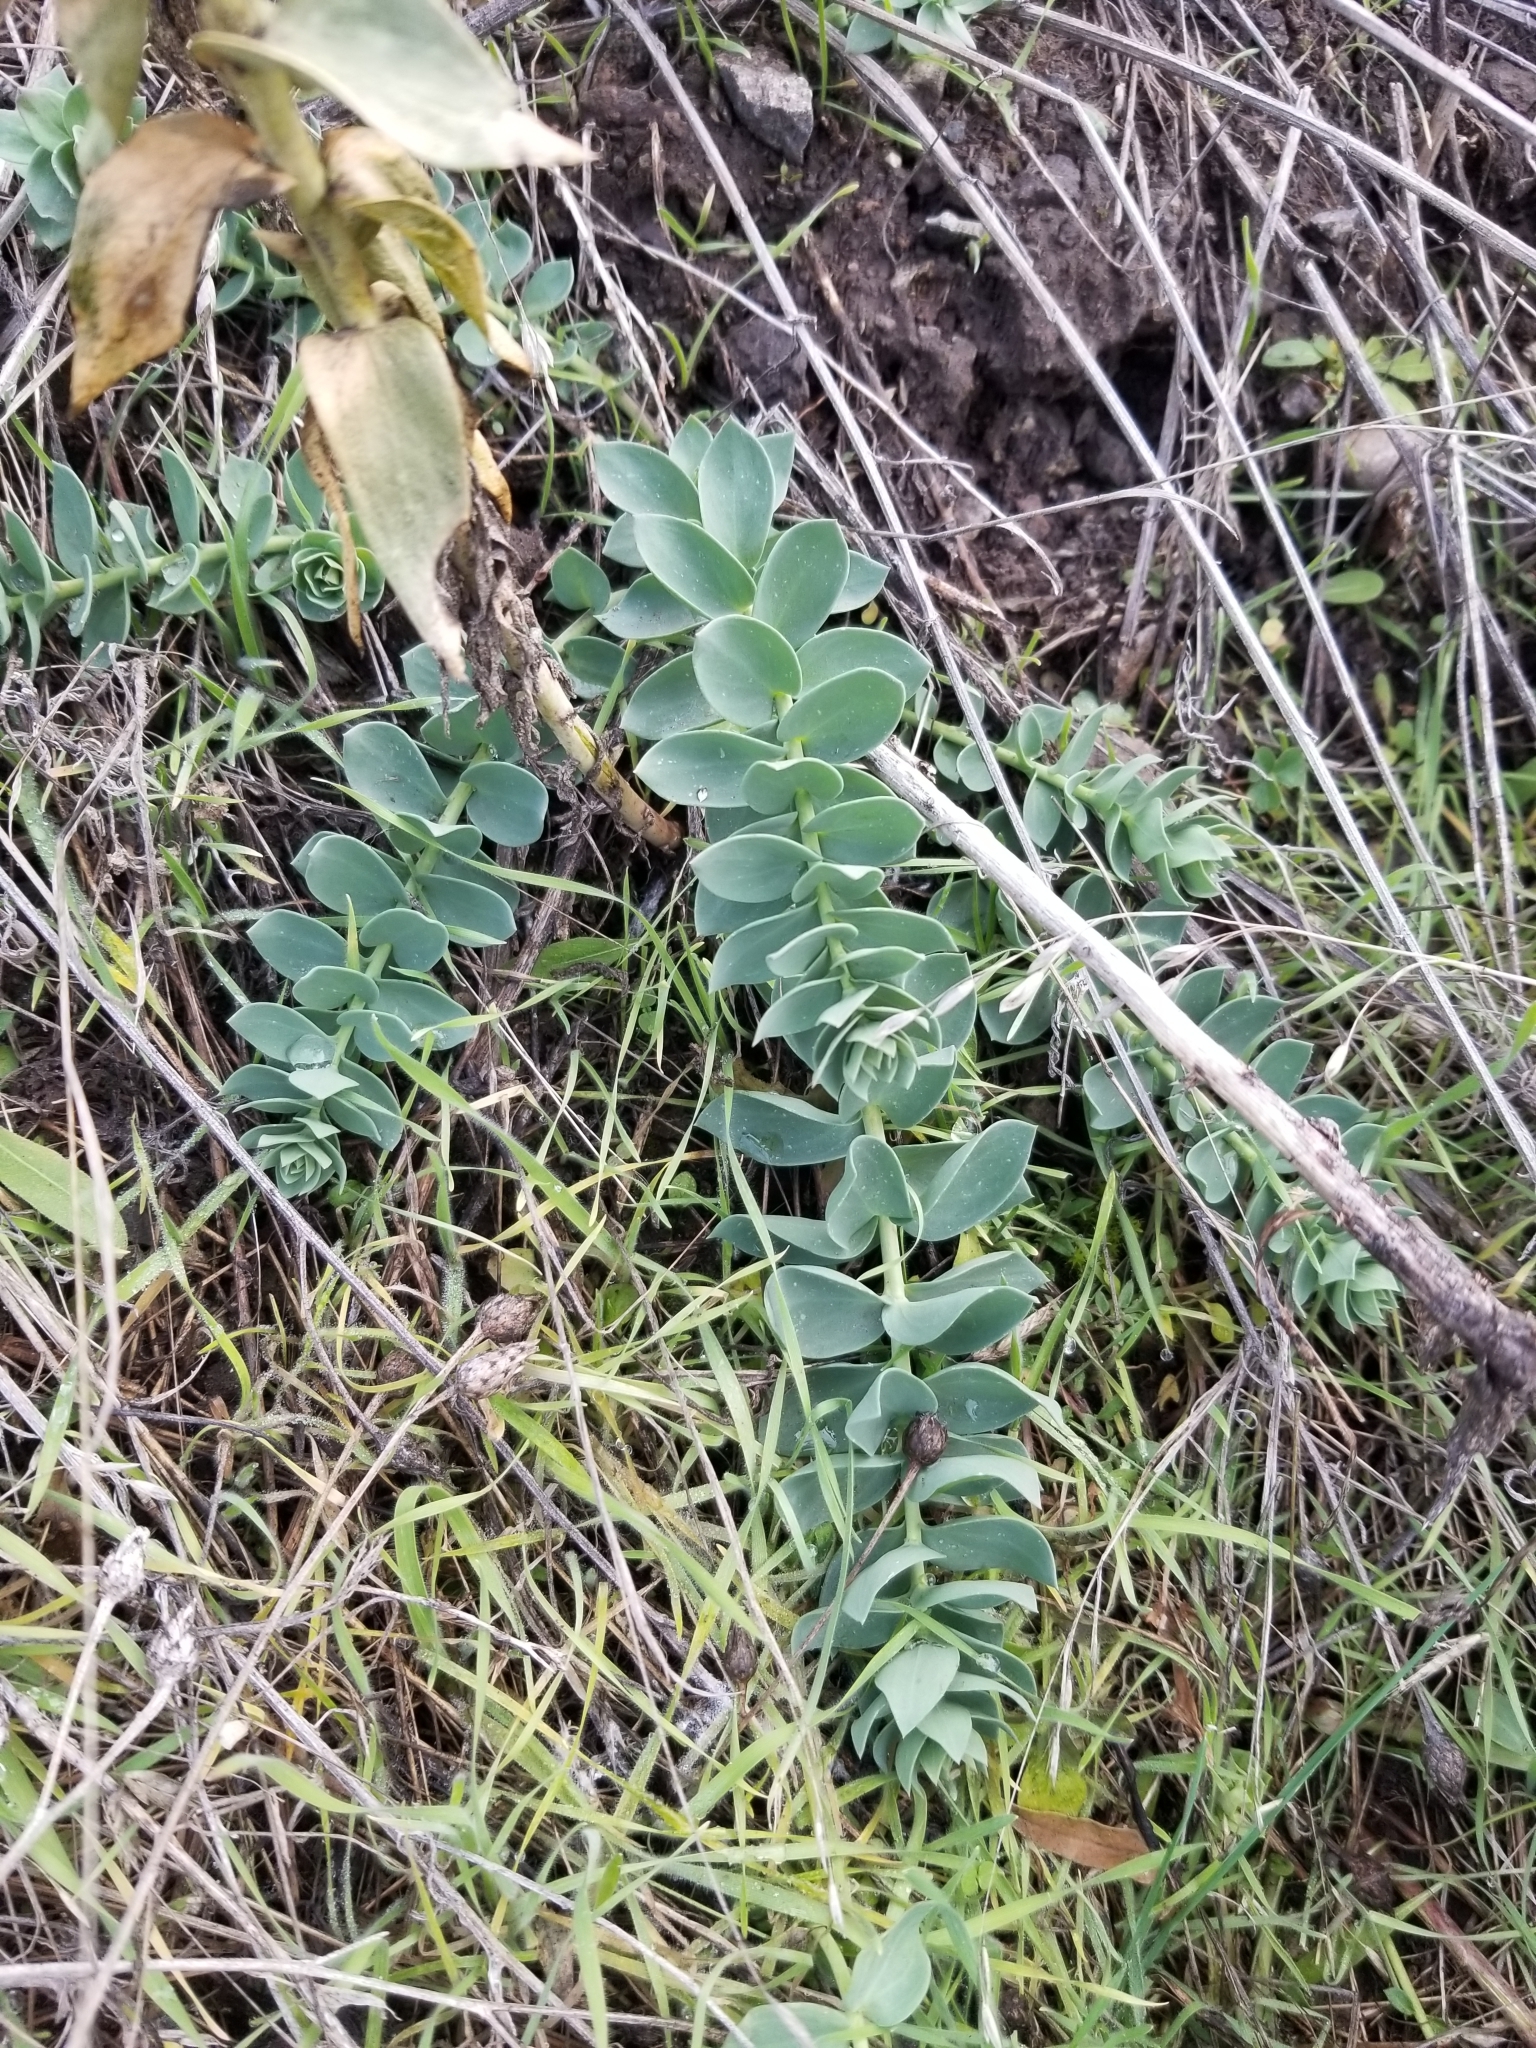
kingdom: Plantae
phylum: Tracheophyta
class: Magnoliopsida
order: Lamiales
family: Plantaginaceae
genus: Linaria
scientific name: Linaria dalmatica
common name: Dalmatian toadflax
